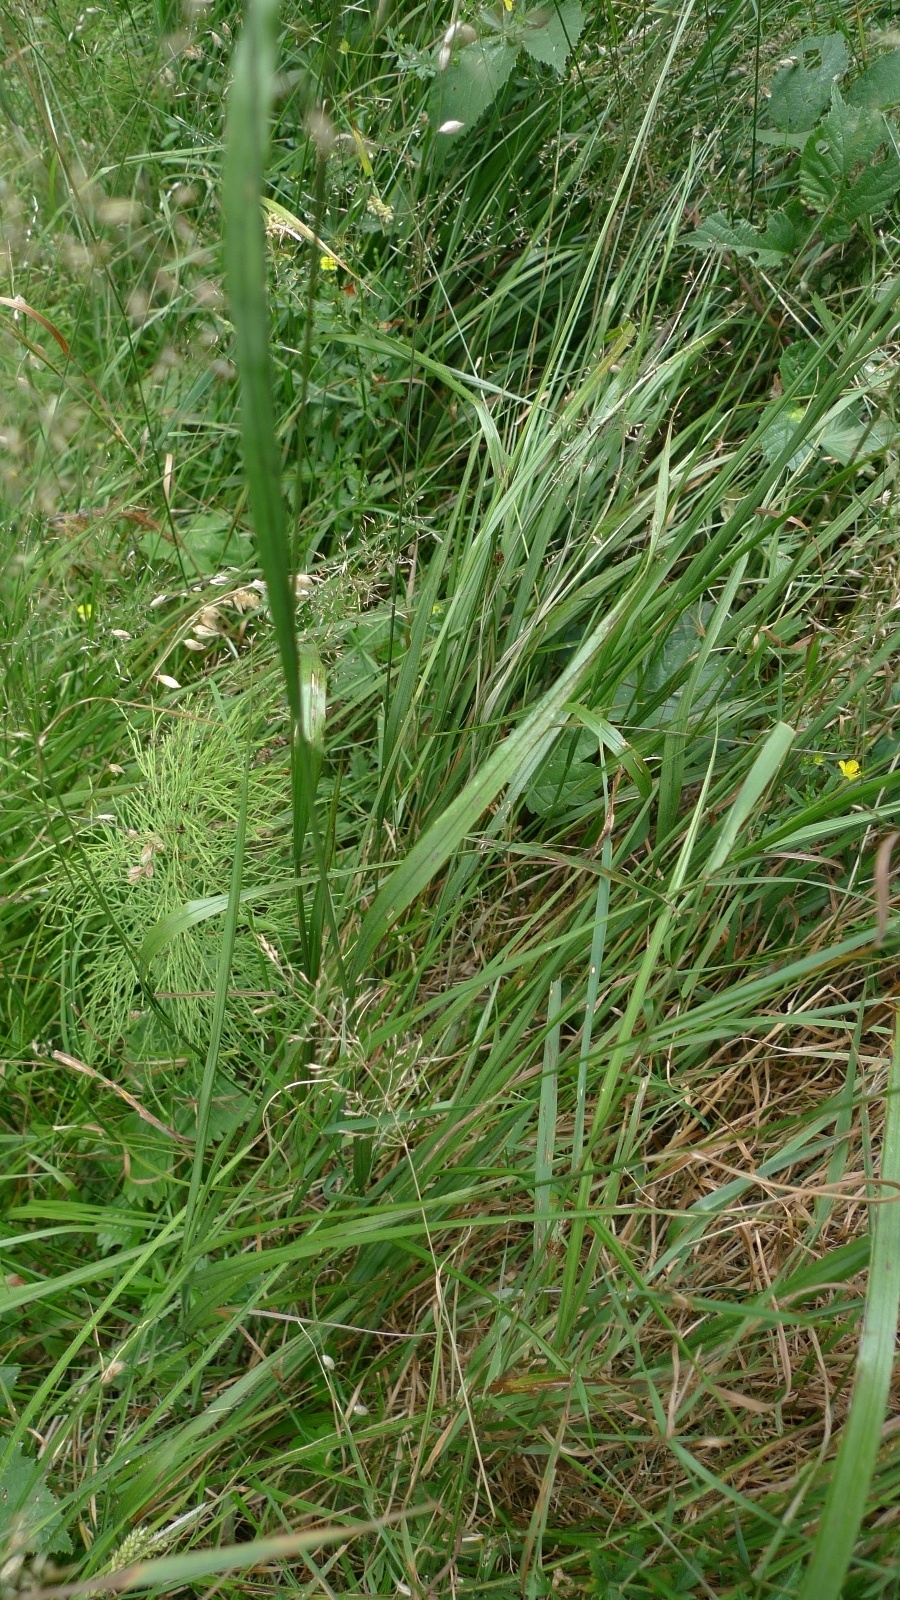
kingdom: Plantae
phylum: Tracheophyta
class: Liliopsida
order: Poales
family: Poaceae
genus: Melica
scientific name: Melica nutans
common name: Mountain melick
